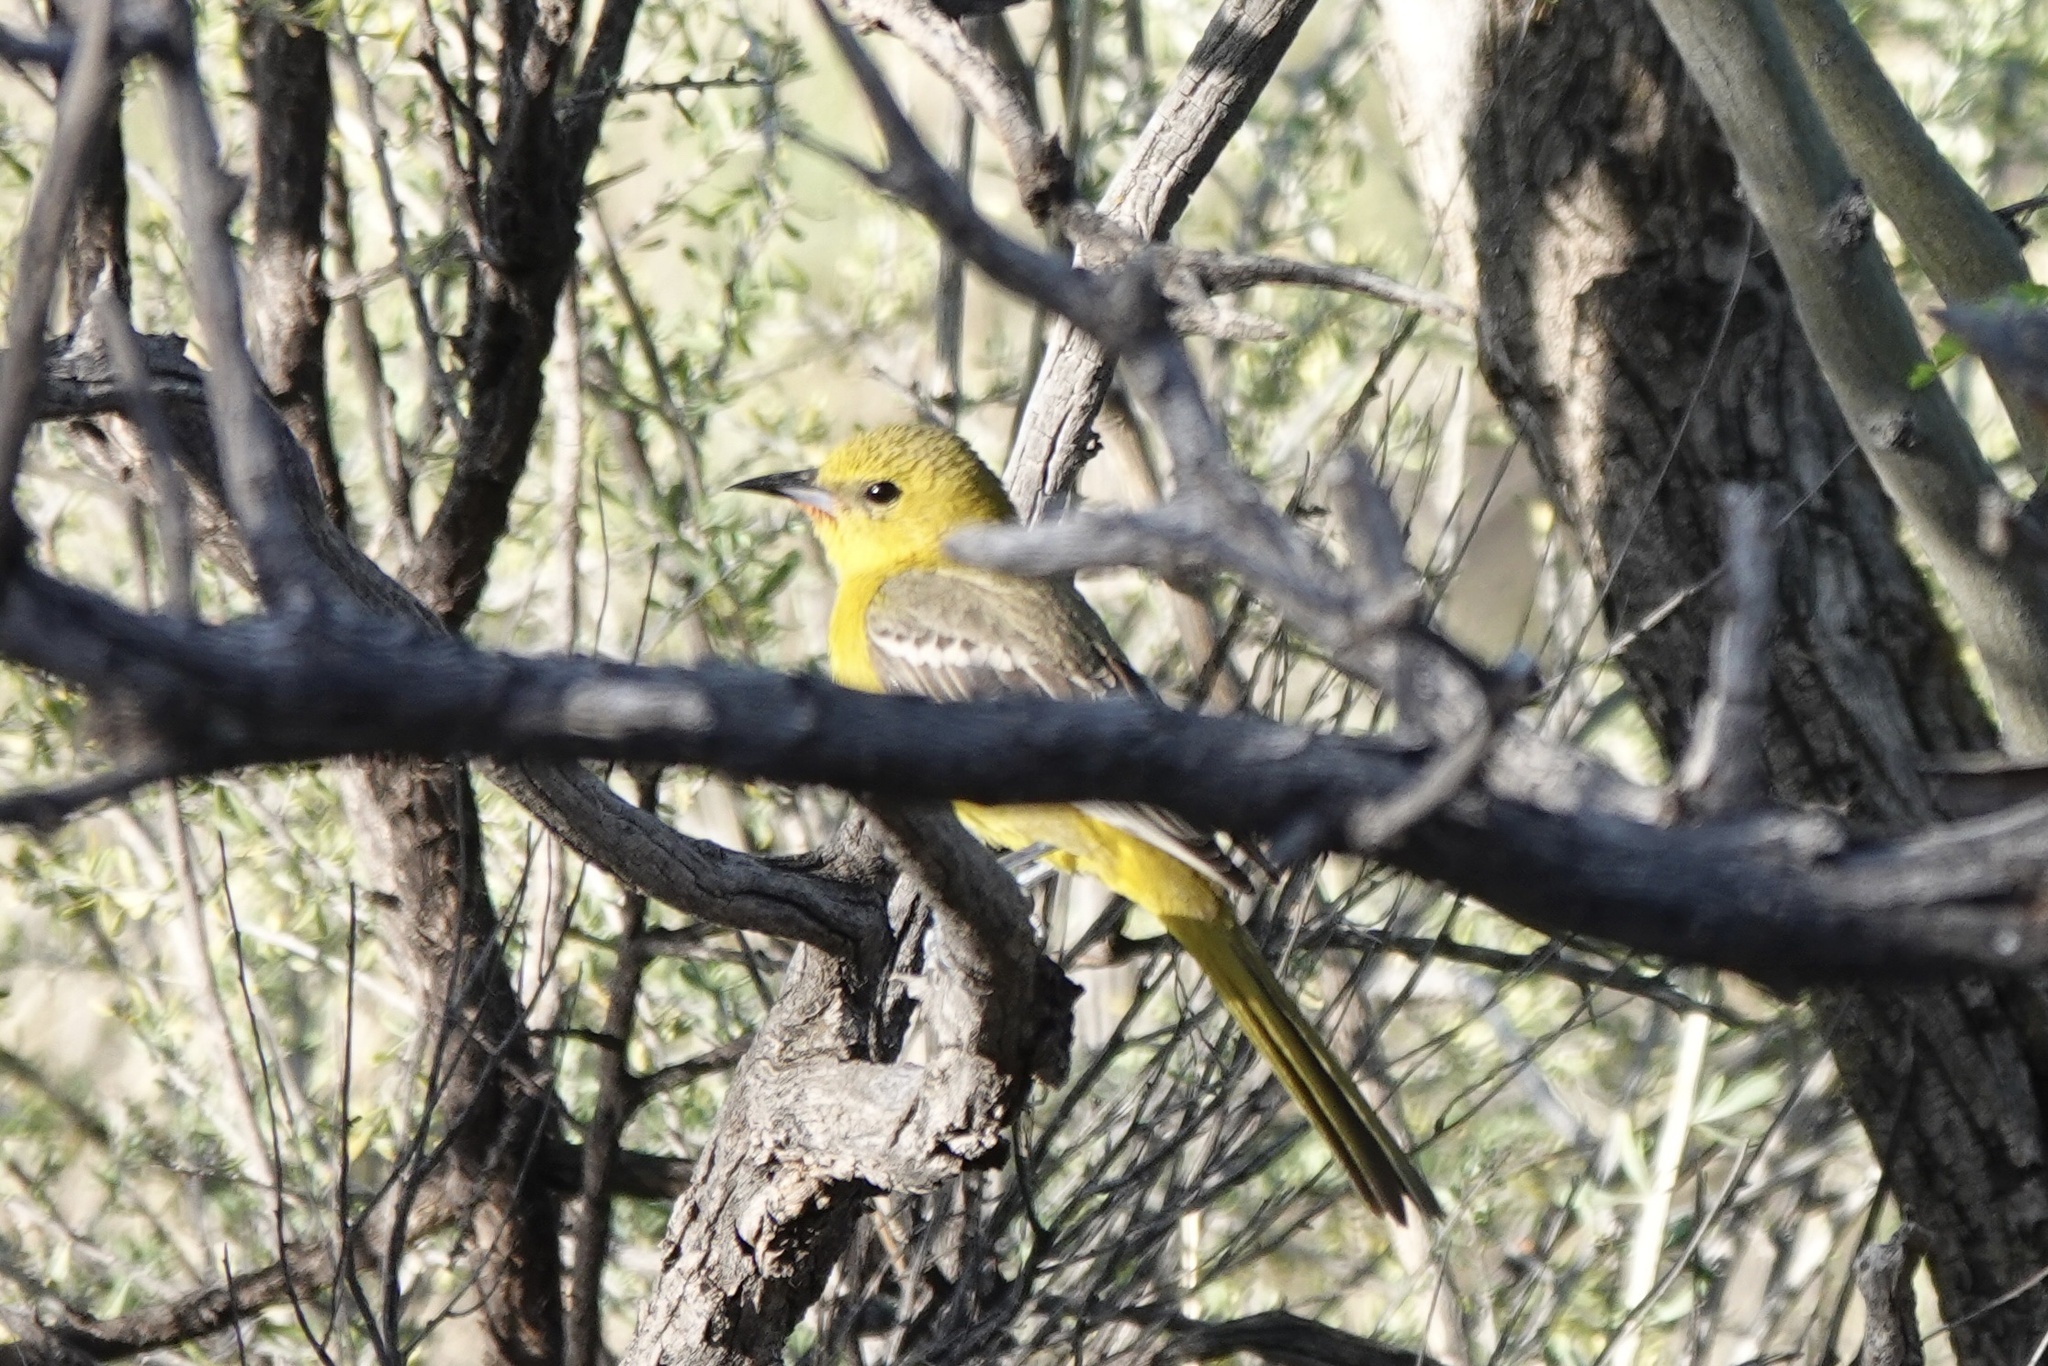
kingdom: Animalia
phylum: Chordata
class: Aves
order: Passeriformes
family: Icteridae
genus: Icterus
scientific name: Icterus cucullatus
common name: Hooded oriole
